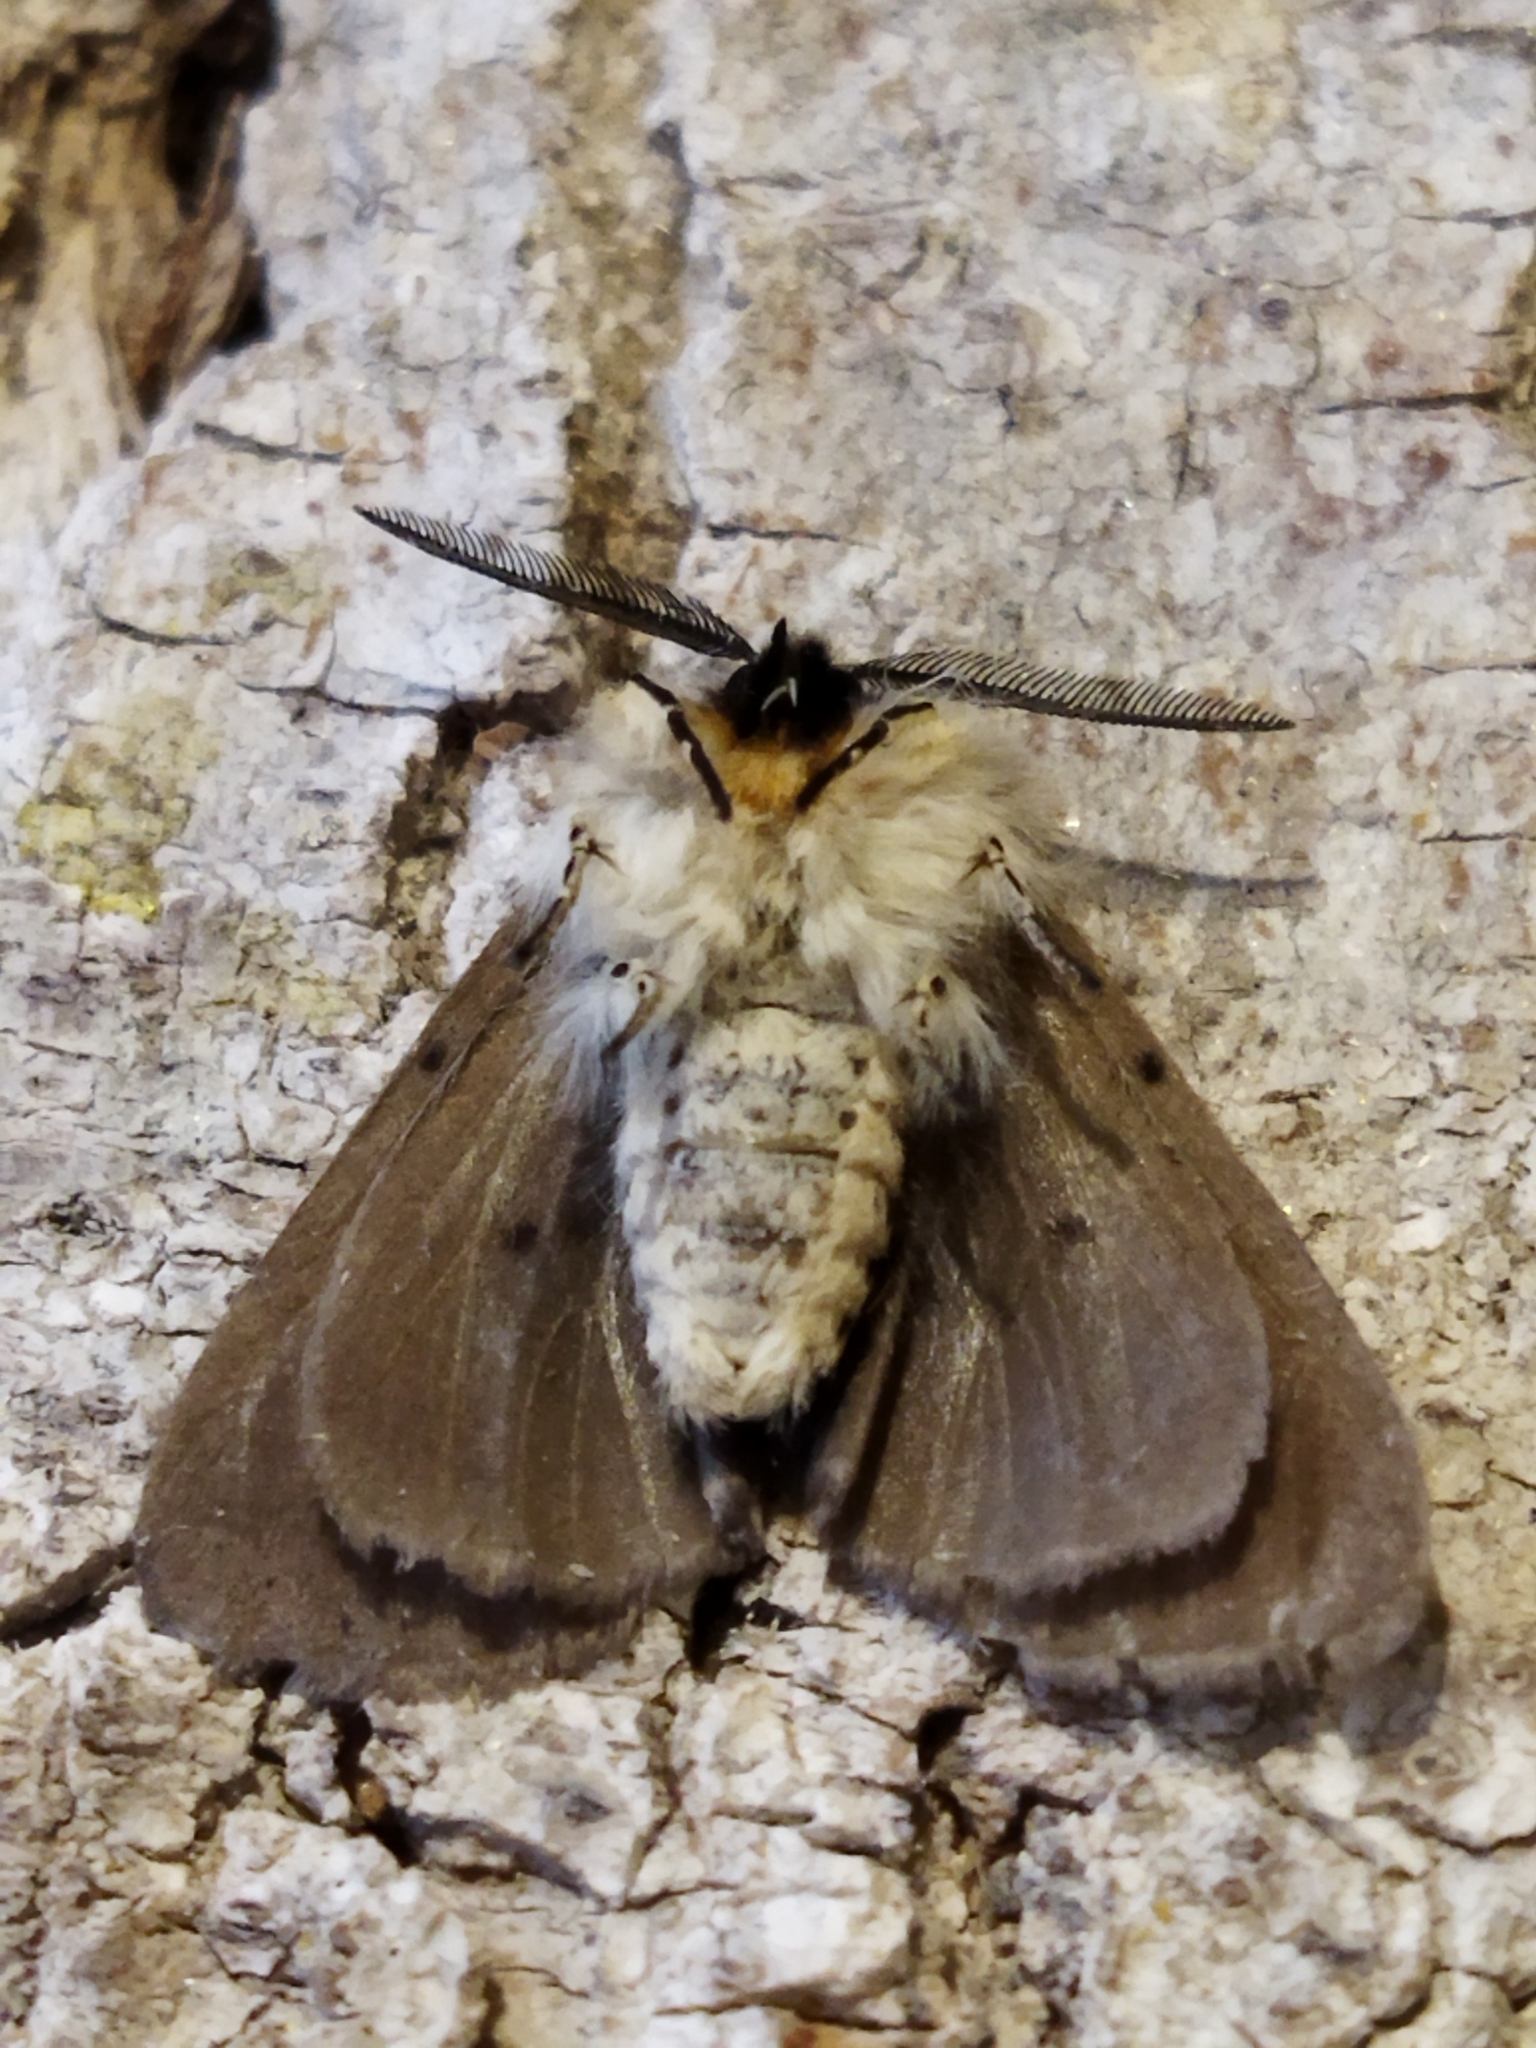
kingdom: Animalia
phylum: Arthropoda
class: Insecta
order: Lepidoptera
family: Erebidae
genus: Diaphora
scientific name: Diaphora mendica
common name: Muslin moth
